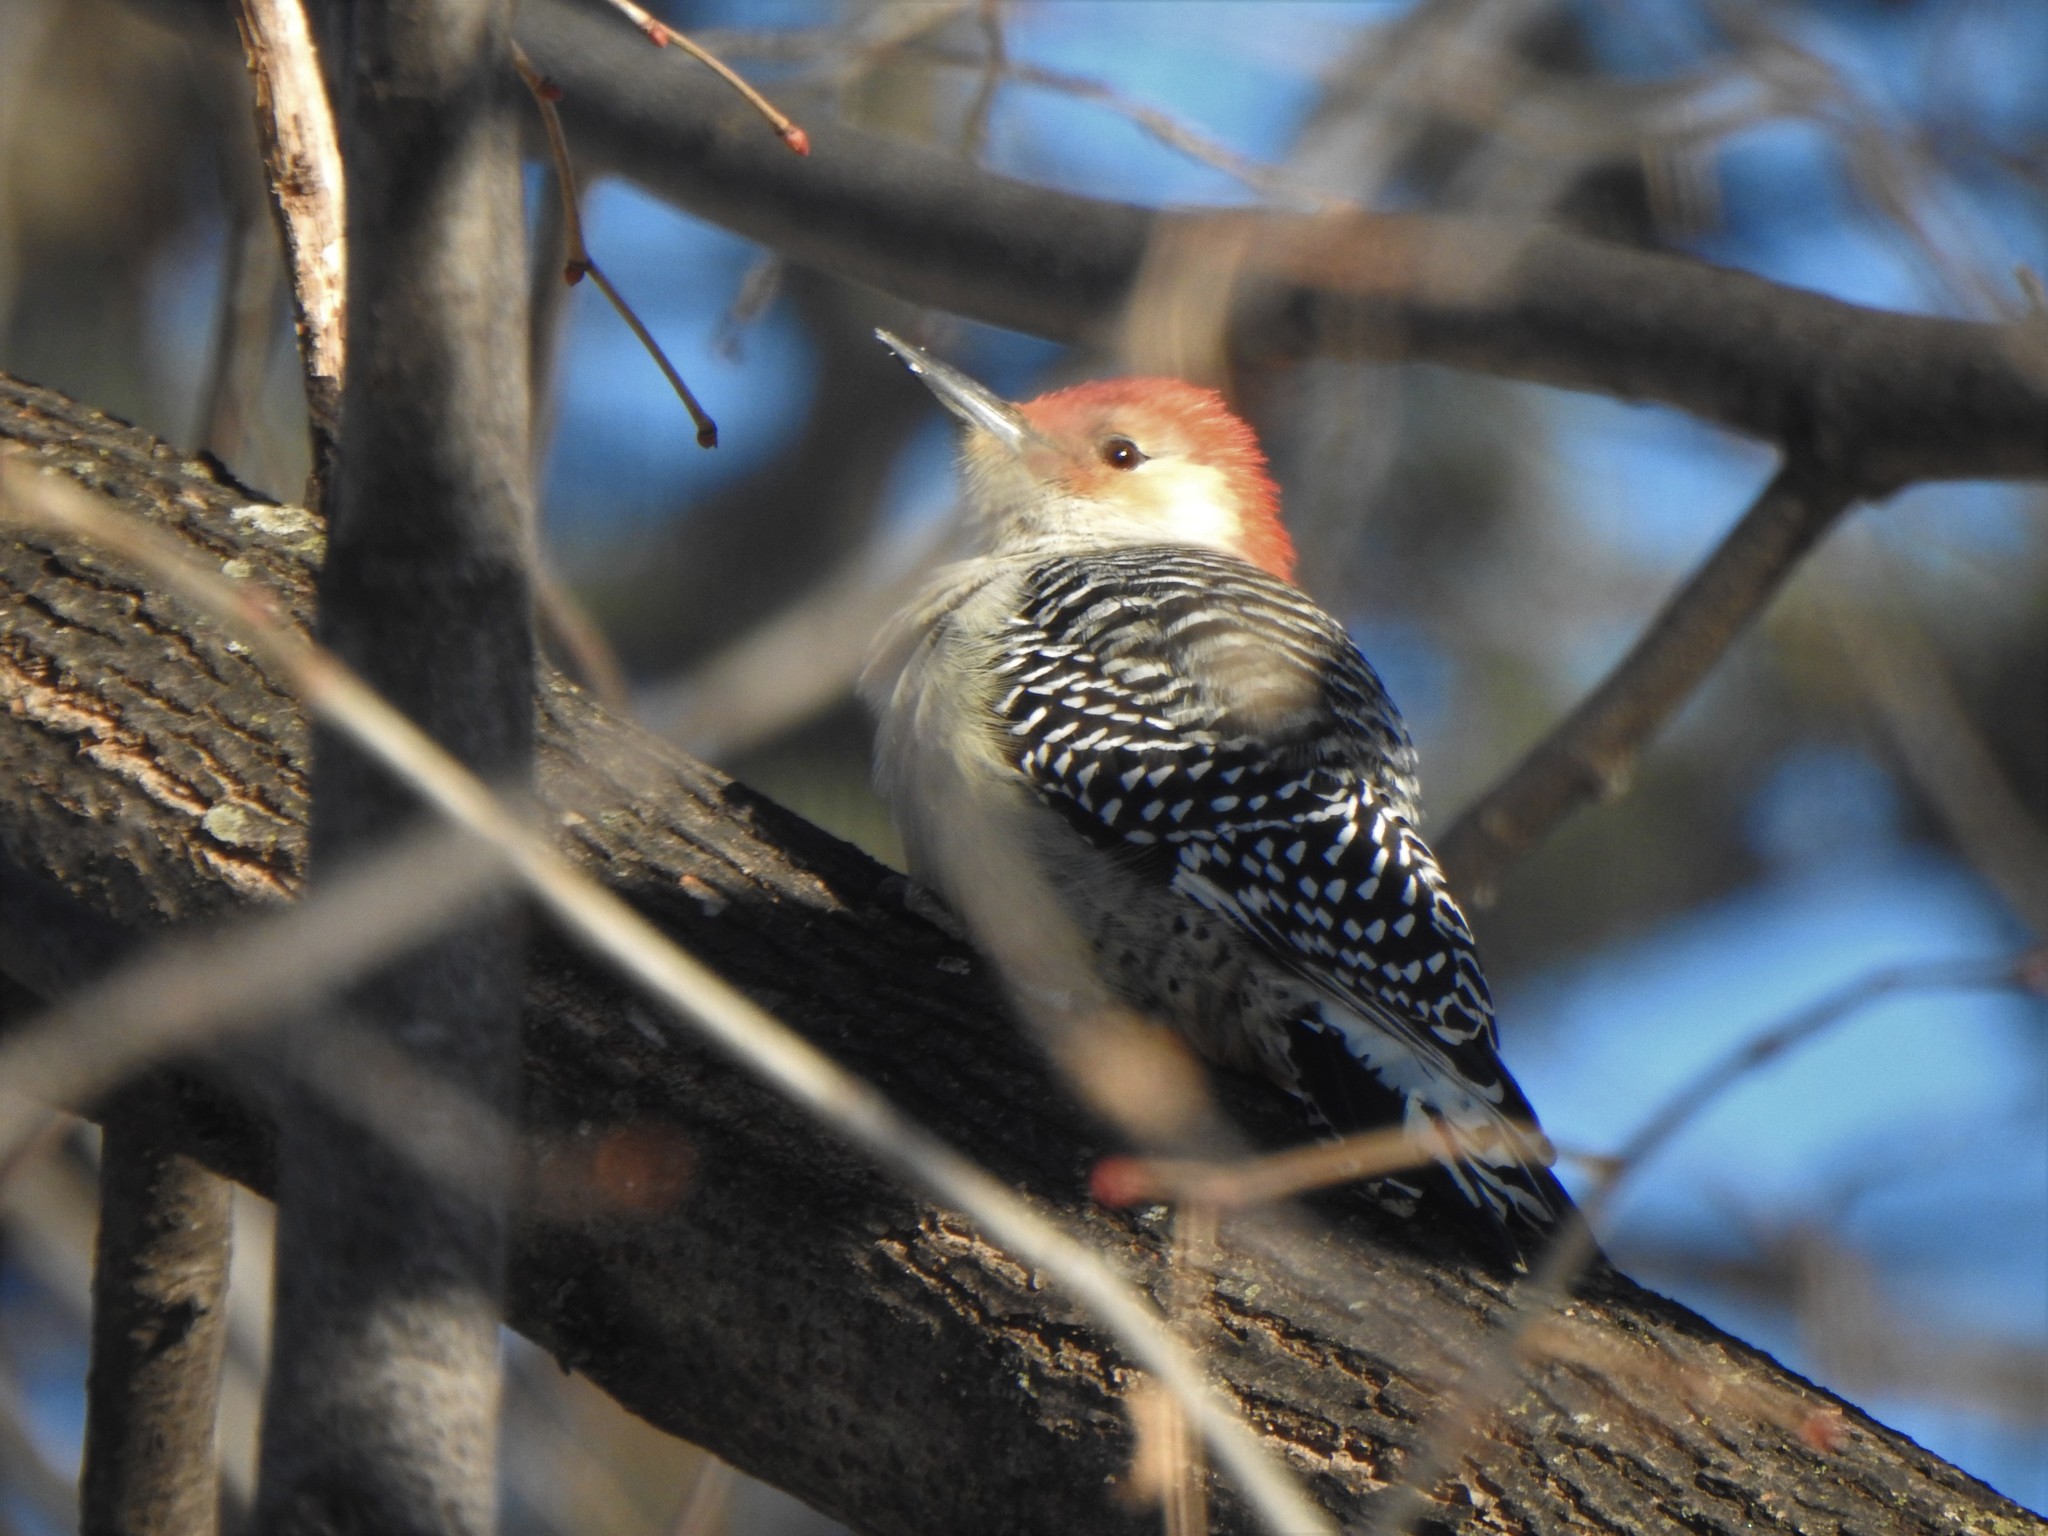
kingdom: Animalia
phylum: Chordata
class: Aves
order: Piciformes
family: Picidae
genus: Melanerpes
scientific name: Melanerpes carolinus
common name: Red-bellied woodpecker
